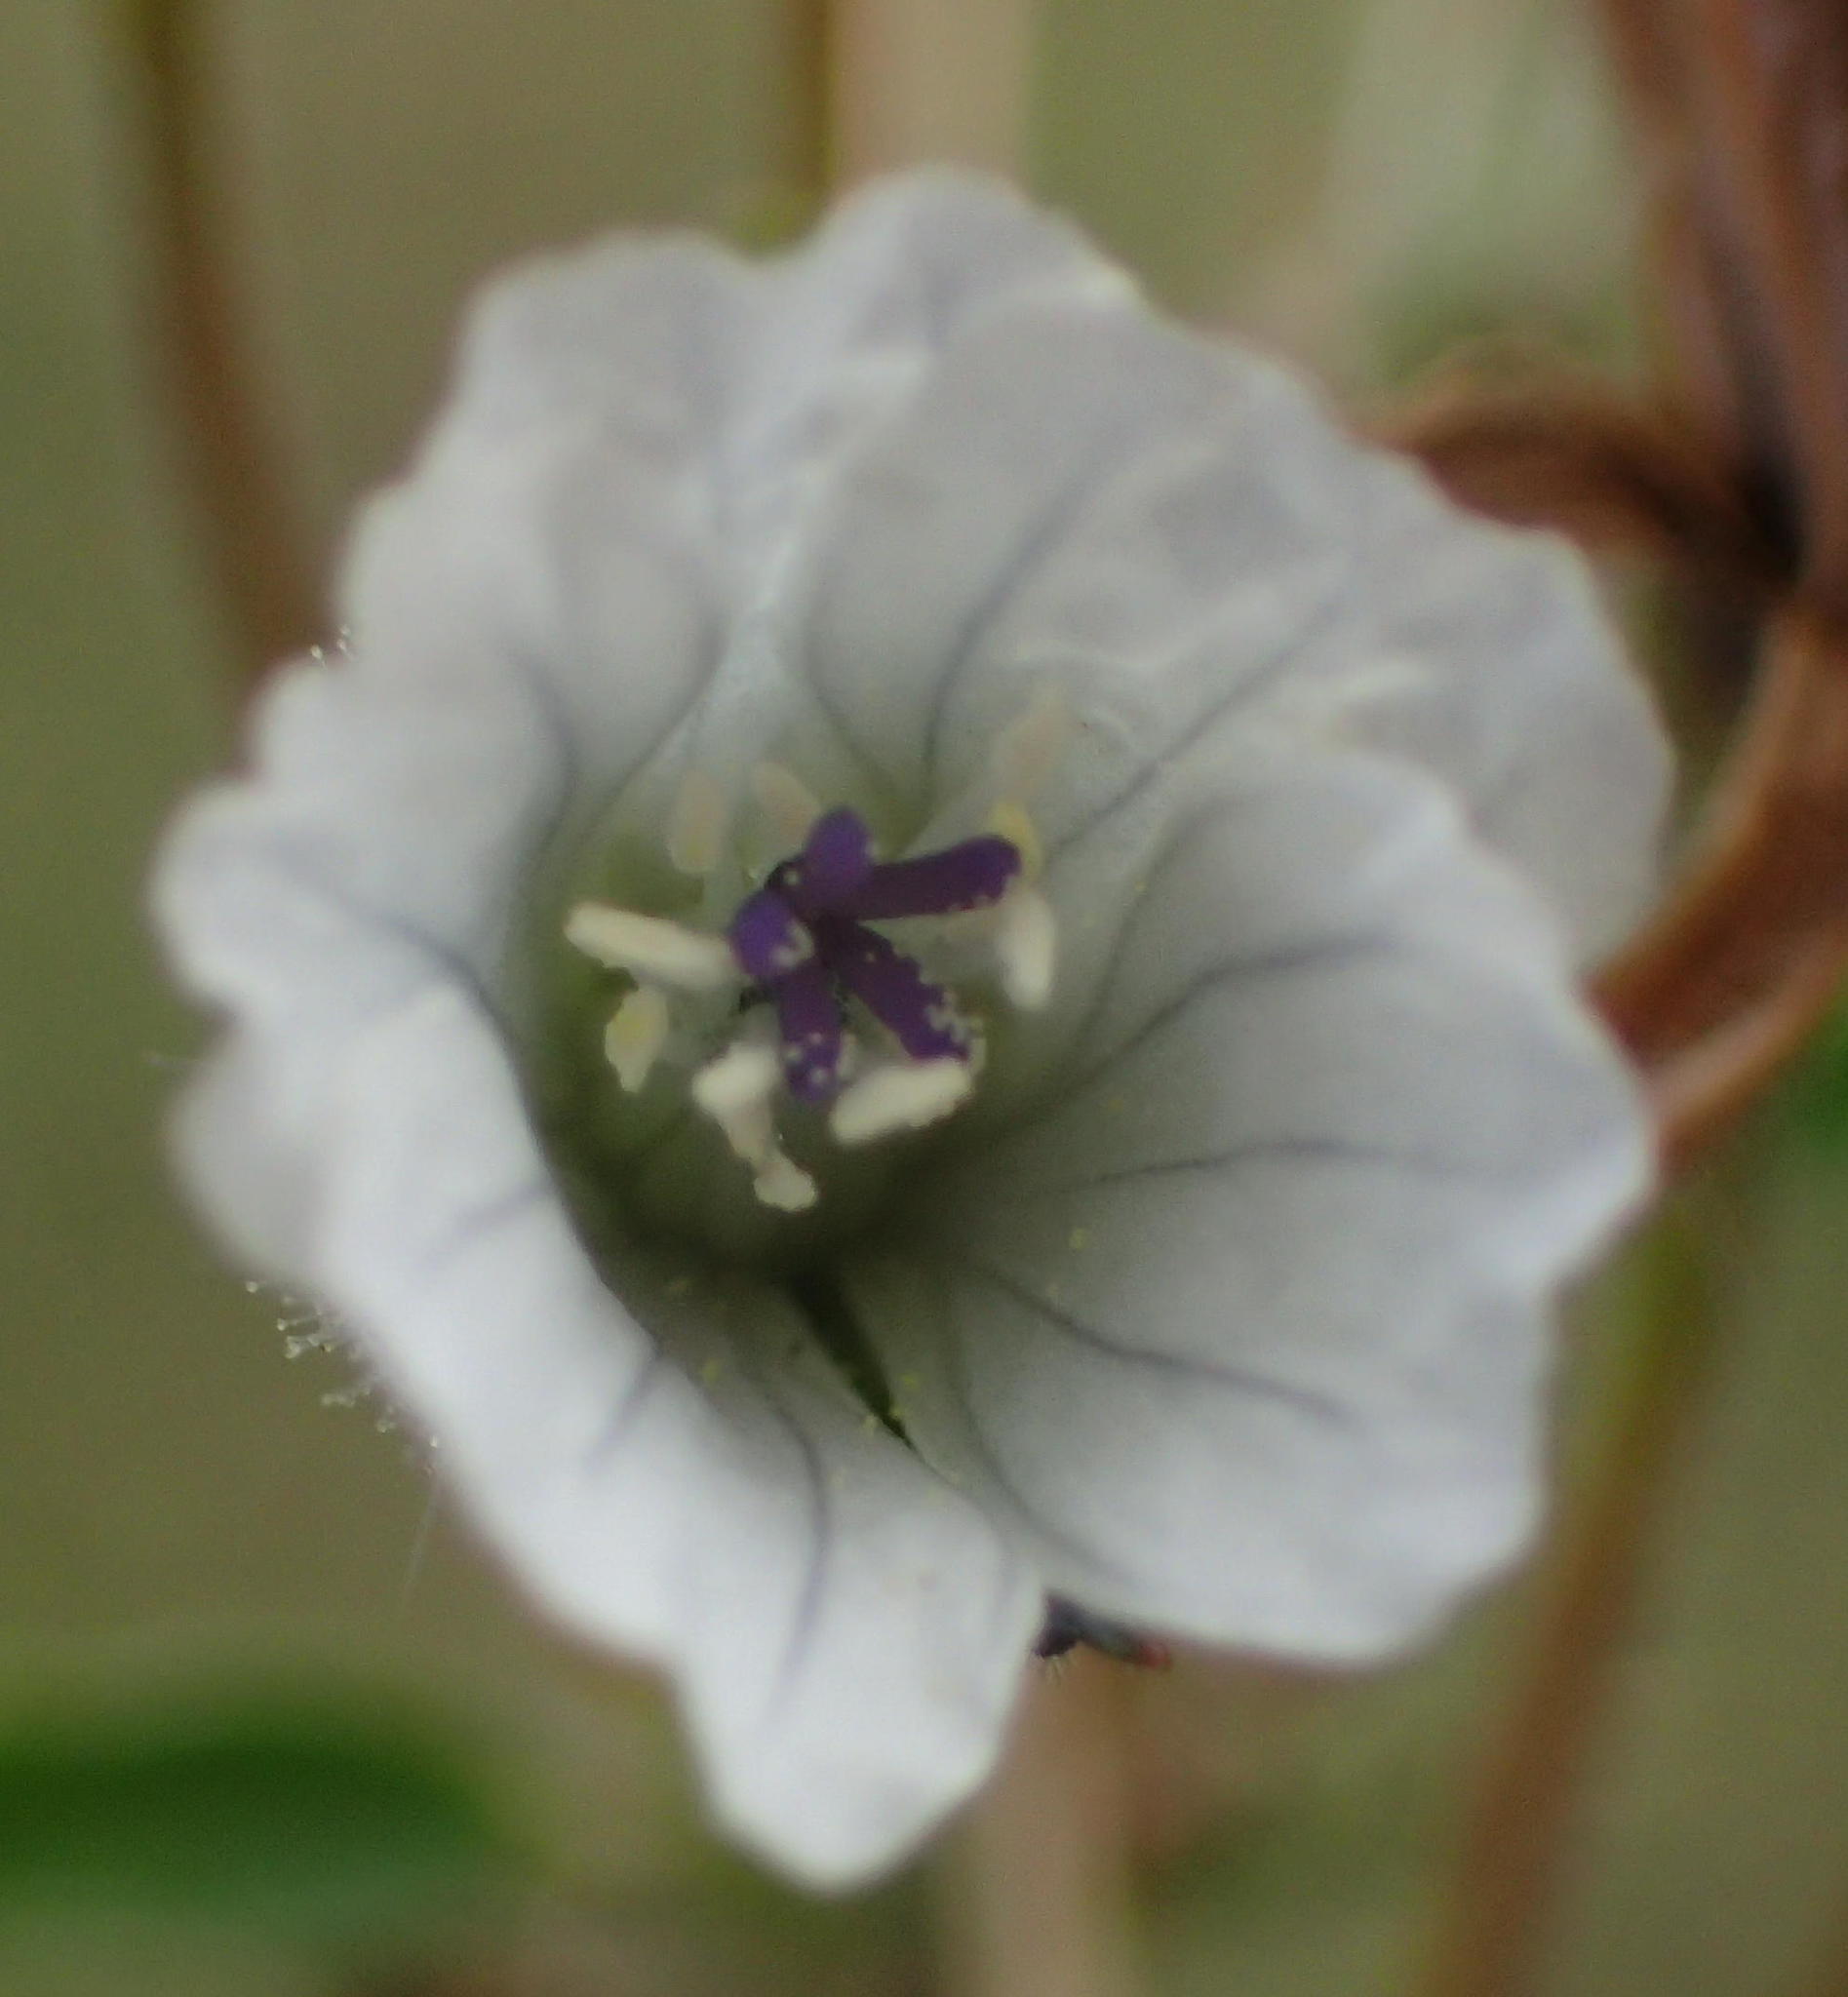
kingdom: Plantae
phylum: Tracheophyta
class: Magnoliopsida
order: Geraniales
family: Geraniaceae
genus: Monsonia
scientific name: Monsonia angustifolia
